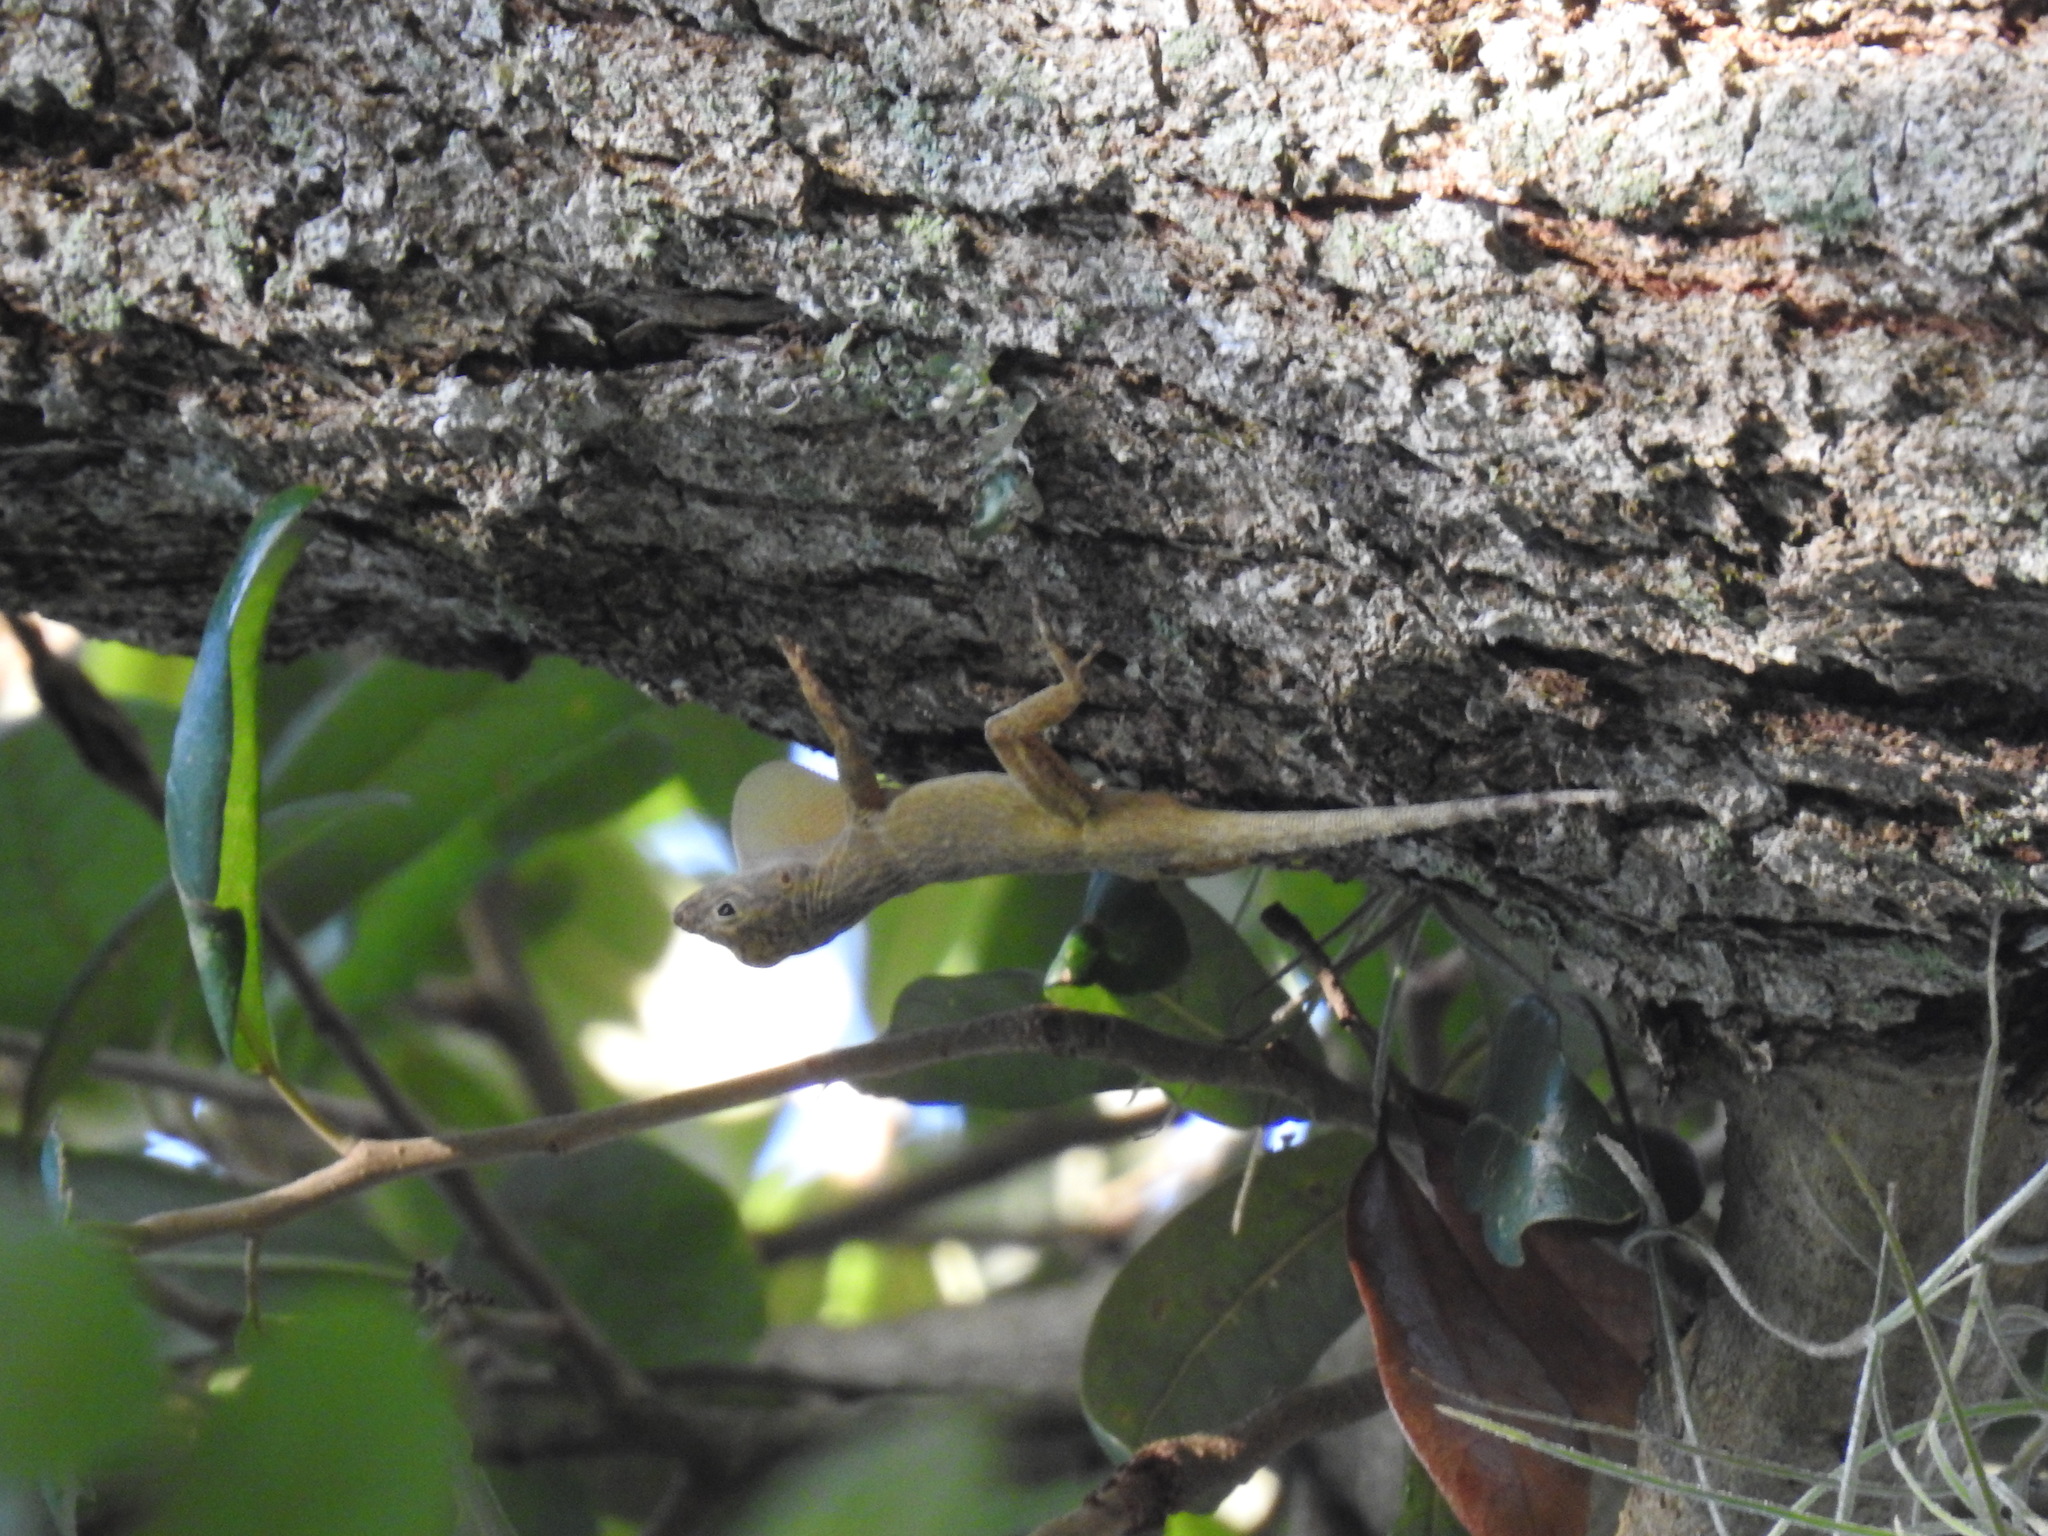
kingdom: Animalia
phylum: Chordata
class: Squamata
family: Dactyloidae
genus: Anolis
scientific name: Anolis distichus
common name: Bark anole
